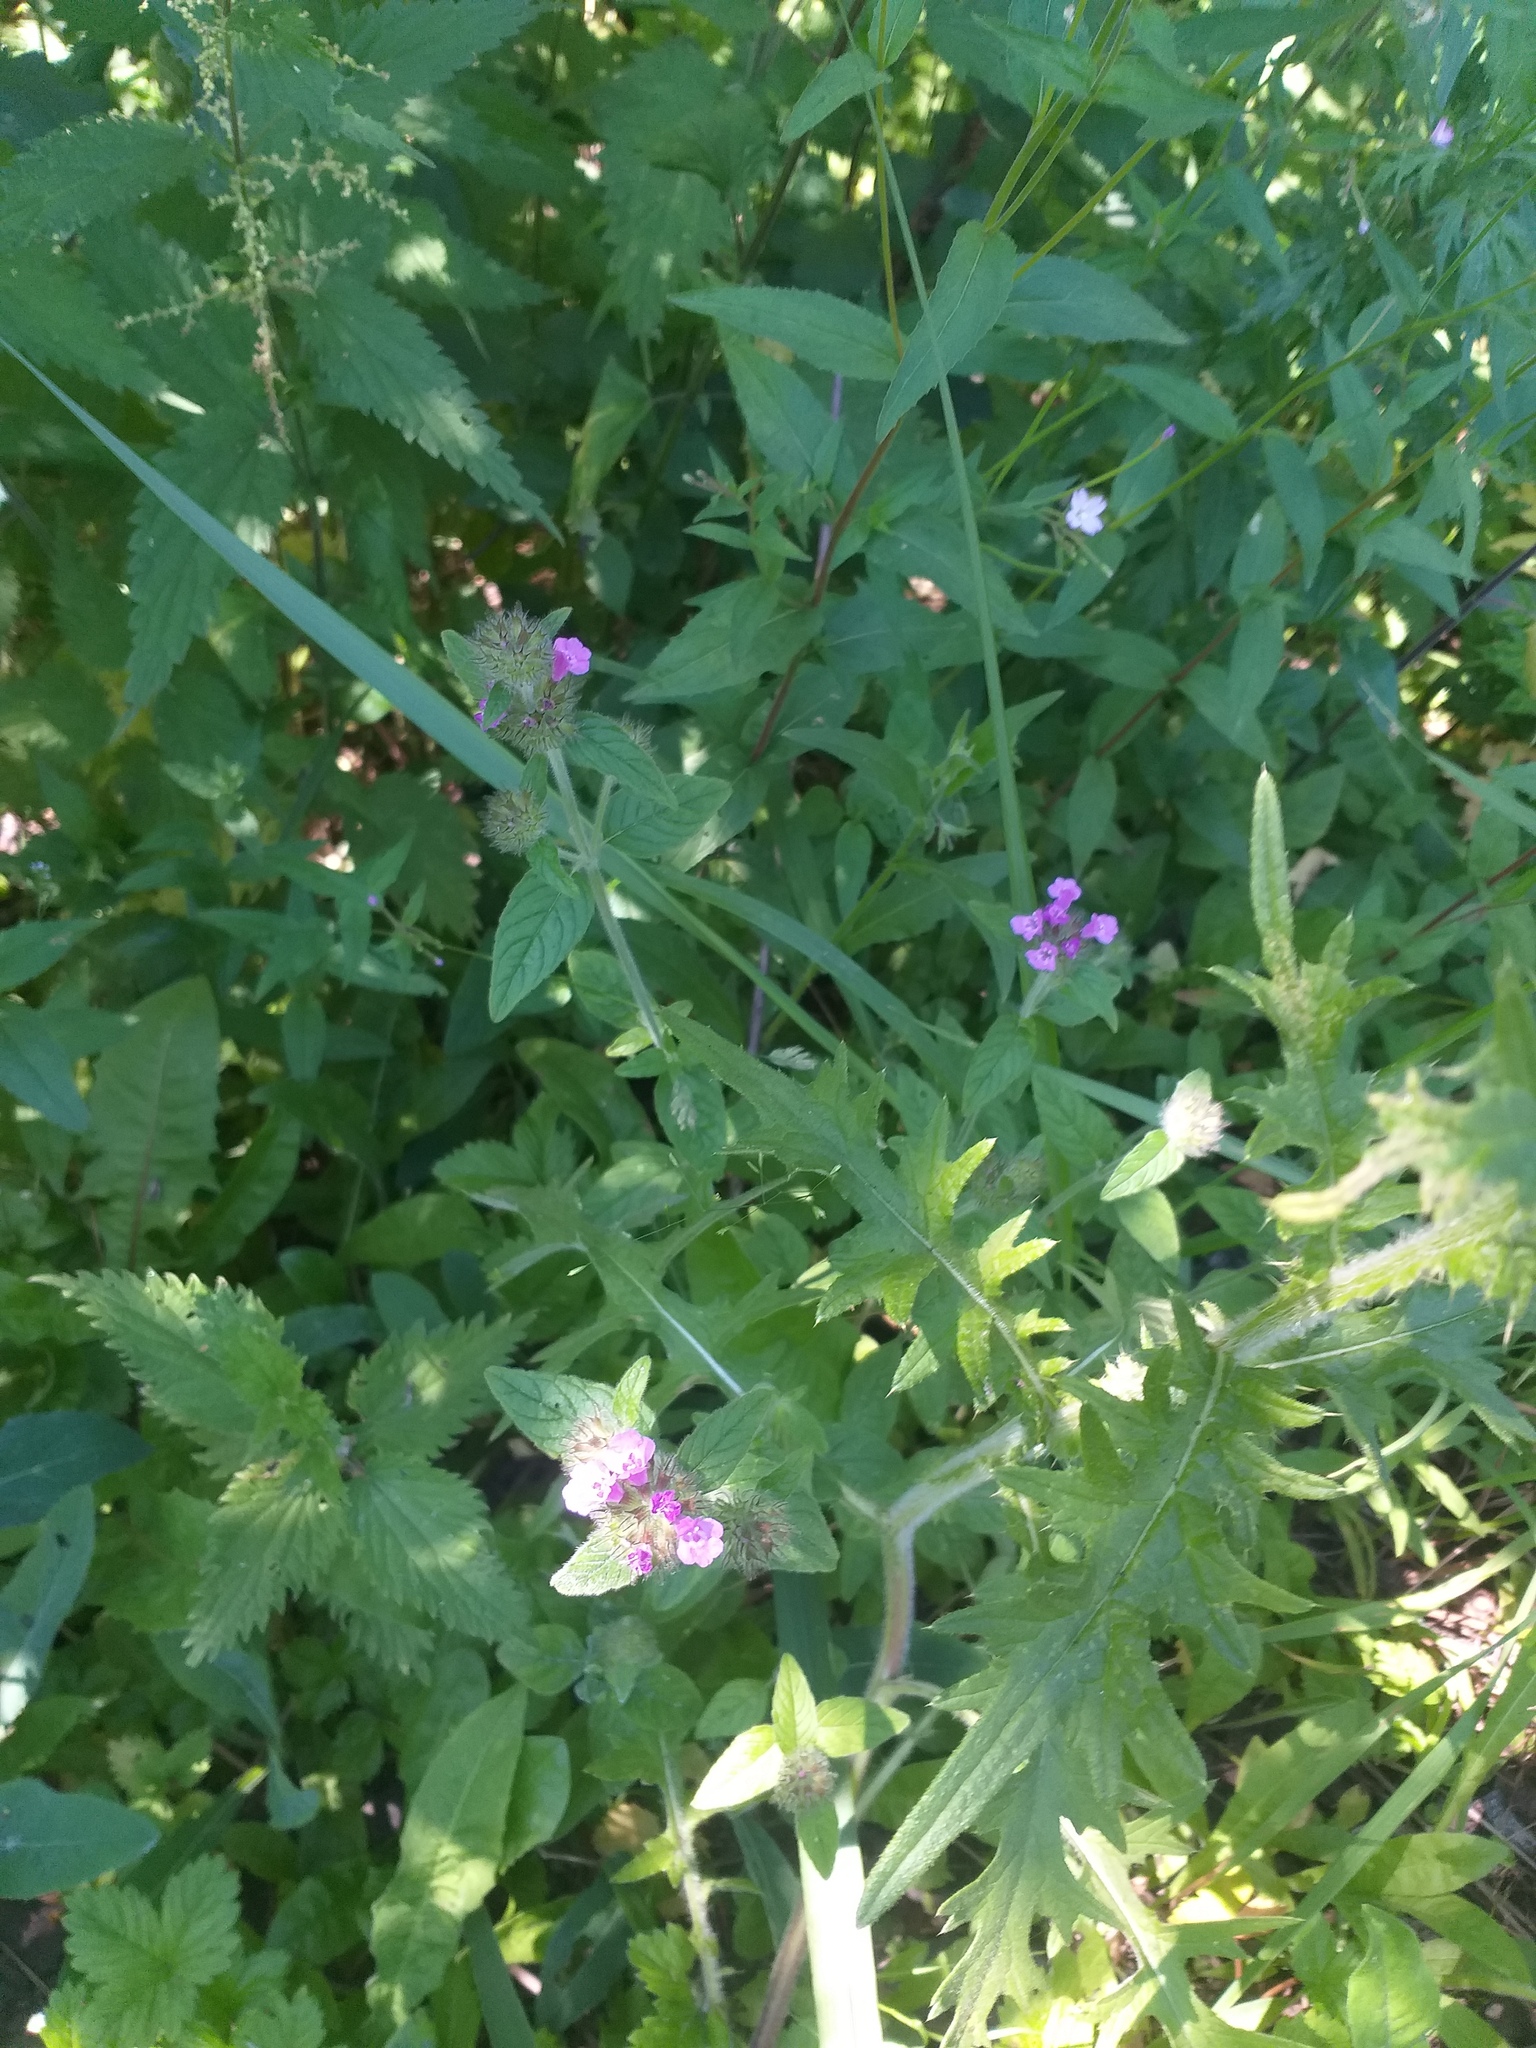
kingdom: Plantae
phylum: Tracheophyta
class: Magnoliopsida
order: Lamiales
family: Lamiaceae
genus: Clinopodium
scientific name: Clinopodium vulgare
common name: Wild basil
